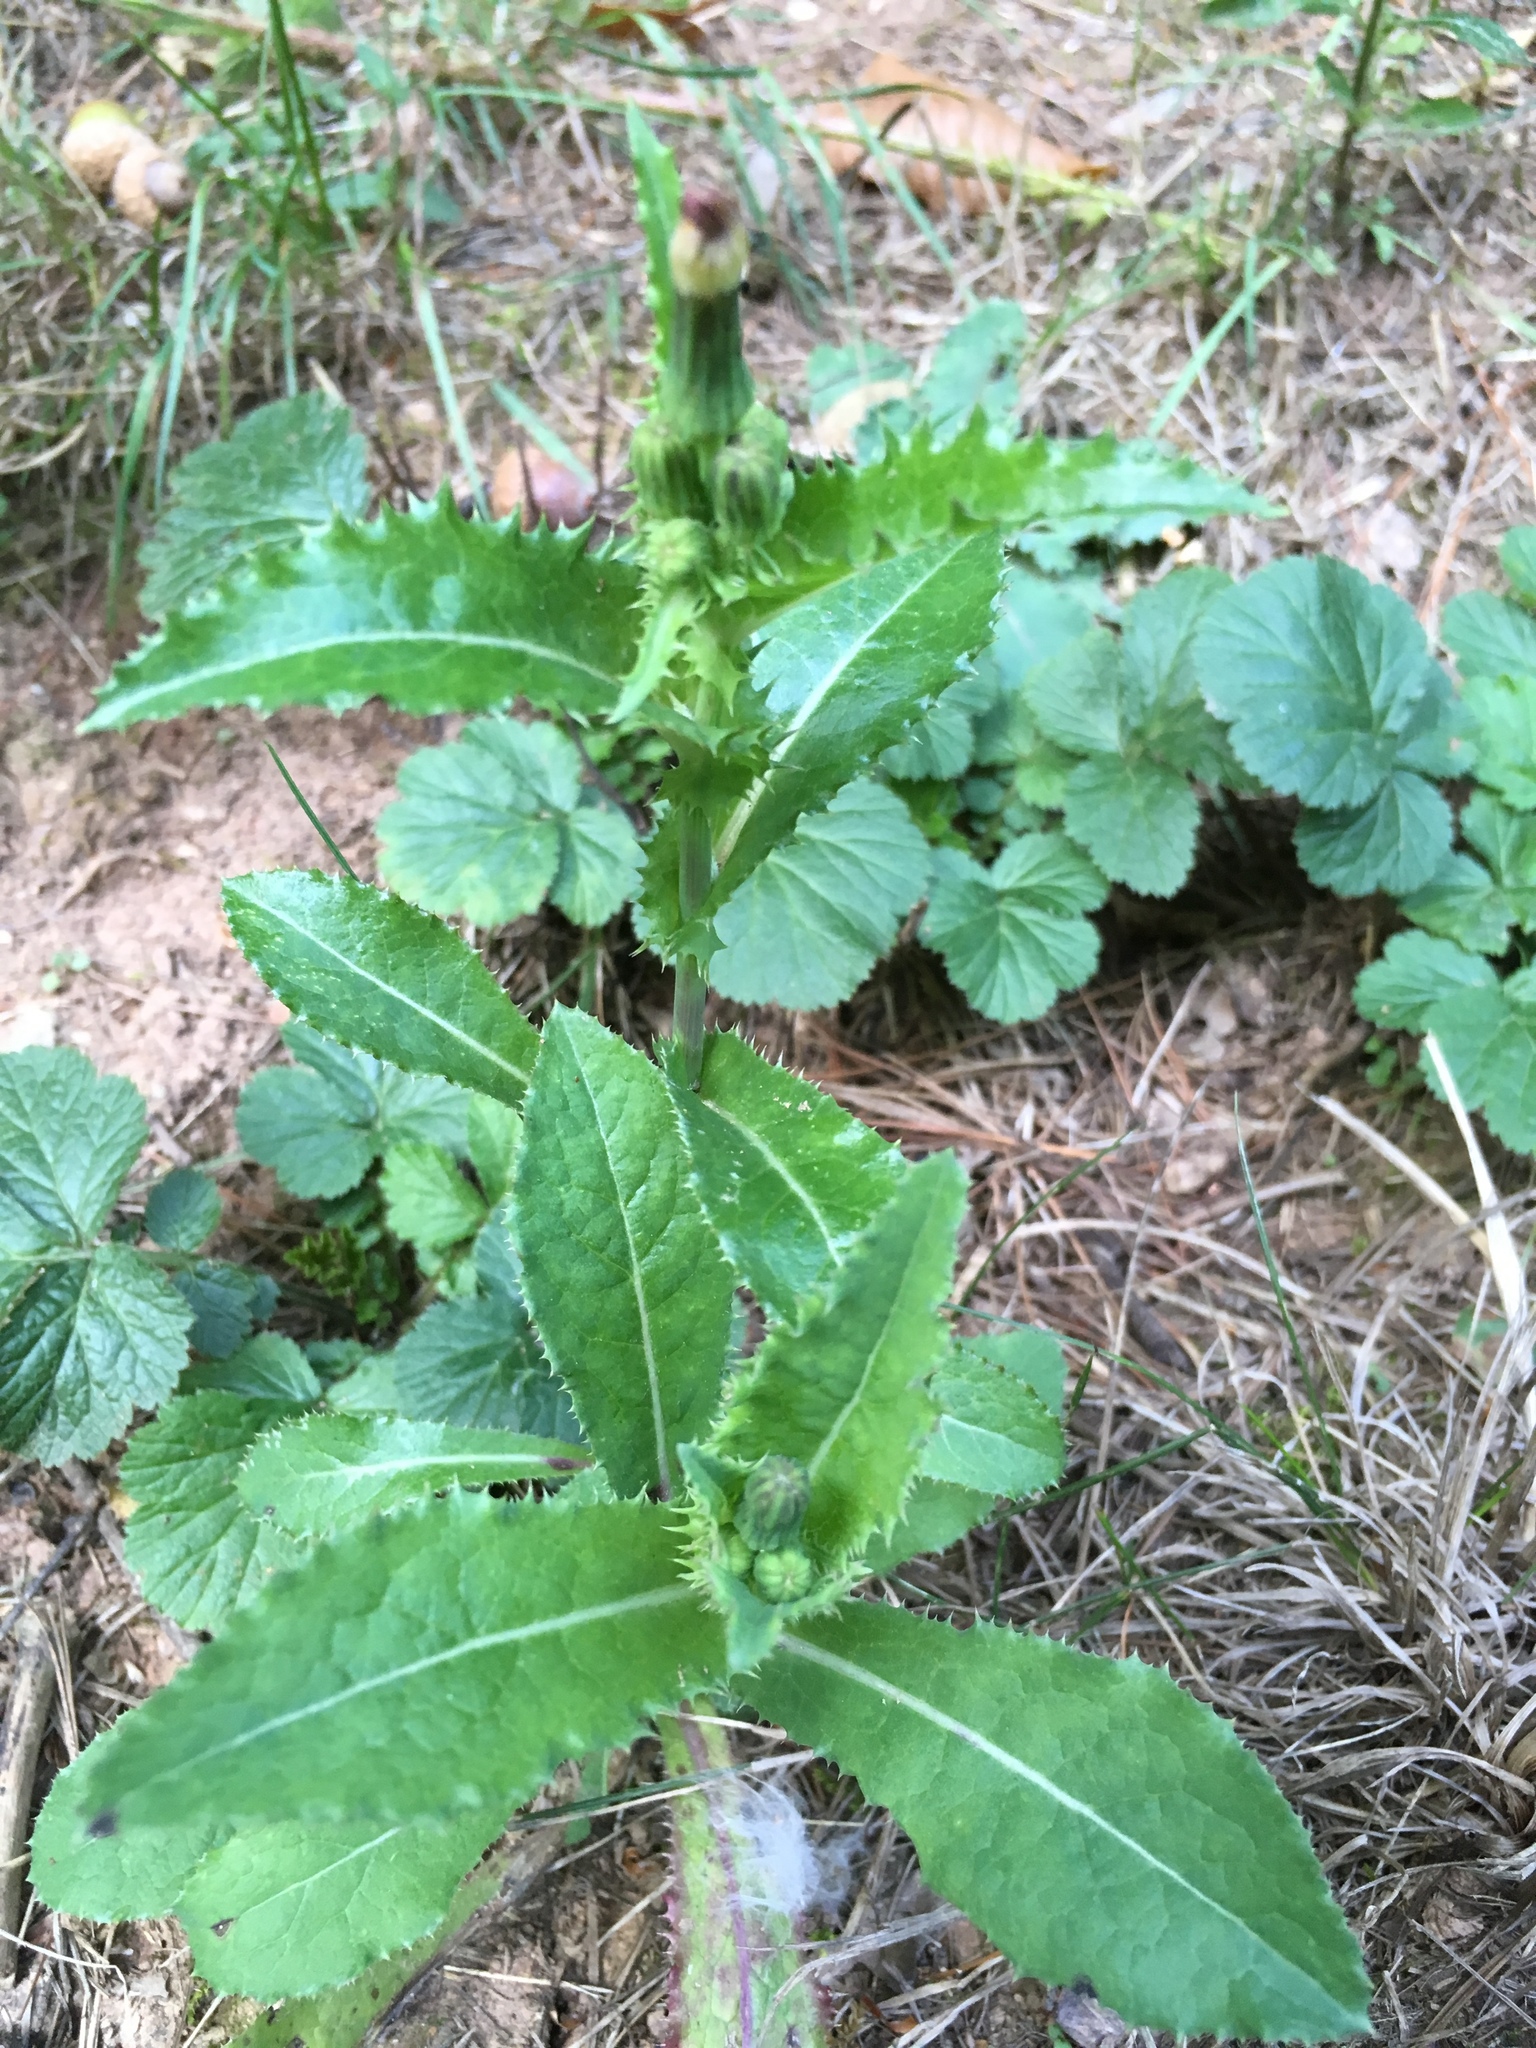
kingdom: Plantae
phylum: Tracheophyta
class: Magnoliopsida
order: Asterales
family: Asteraceae
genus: Sonchus
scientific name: Sonchus asper
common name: Prickly sow-thistle
